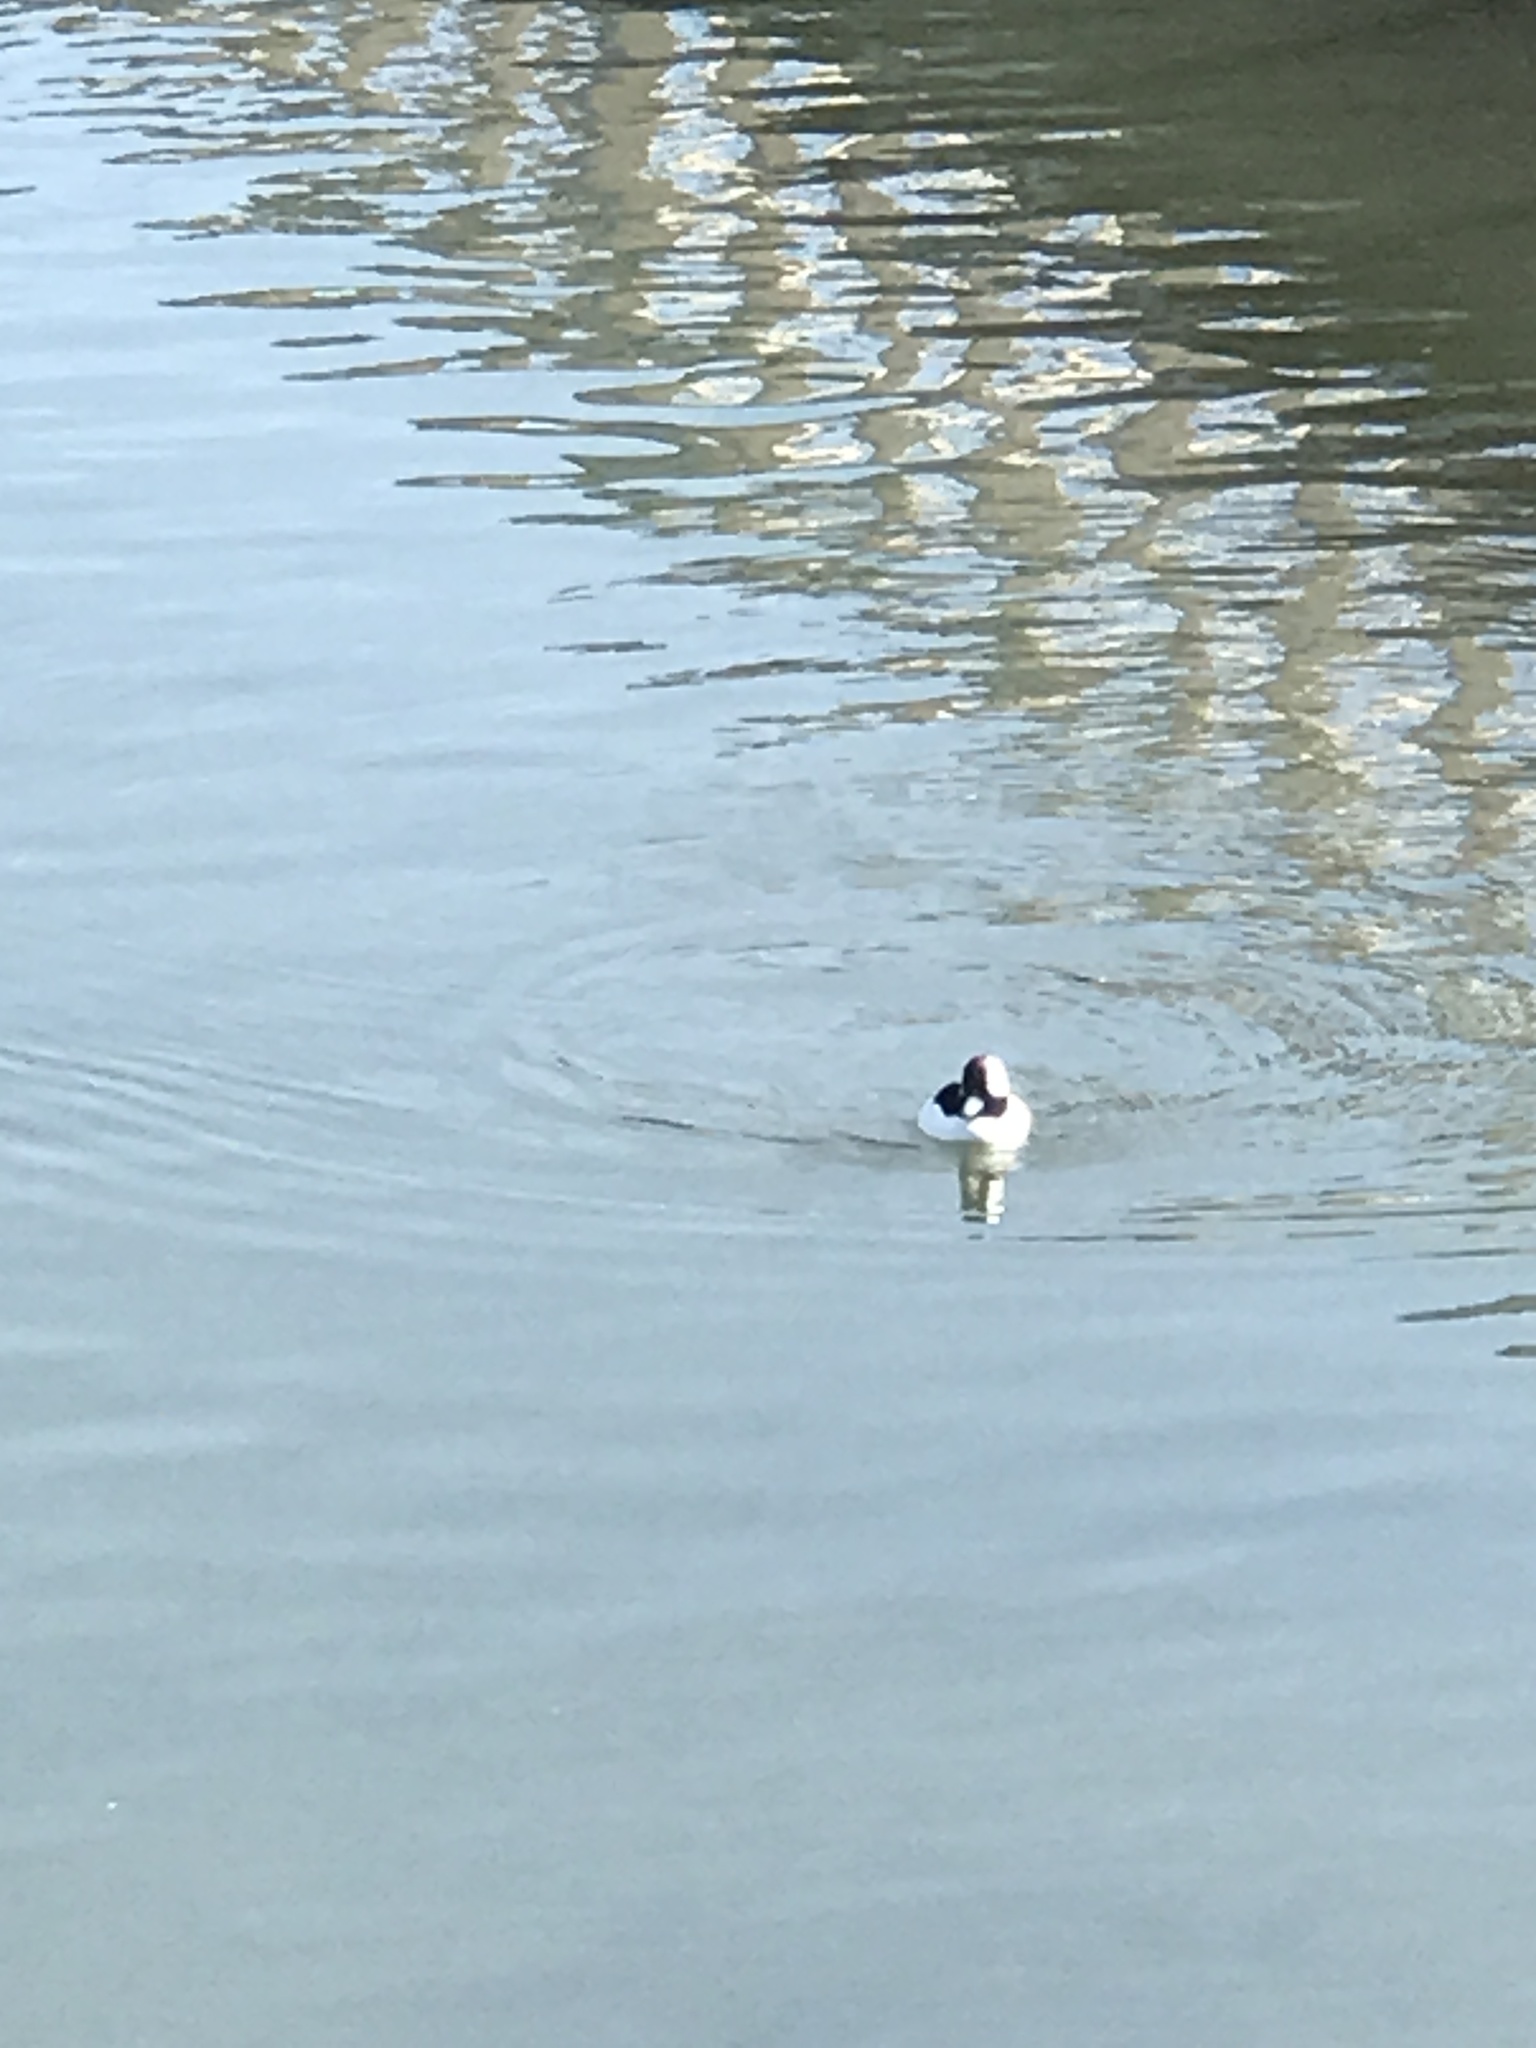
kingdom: Animalia
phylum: Chordata
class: Aves
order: Anseriformes
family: Anatidae
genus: Bucephala
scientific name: Bucephala albeola
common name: Bufflehead
